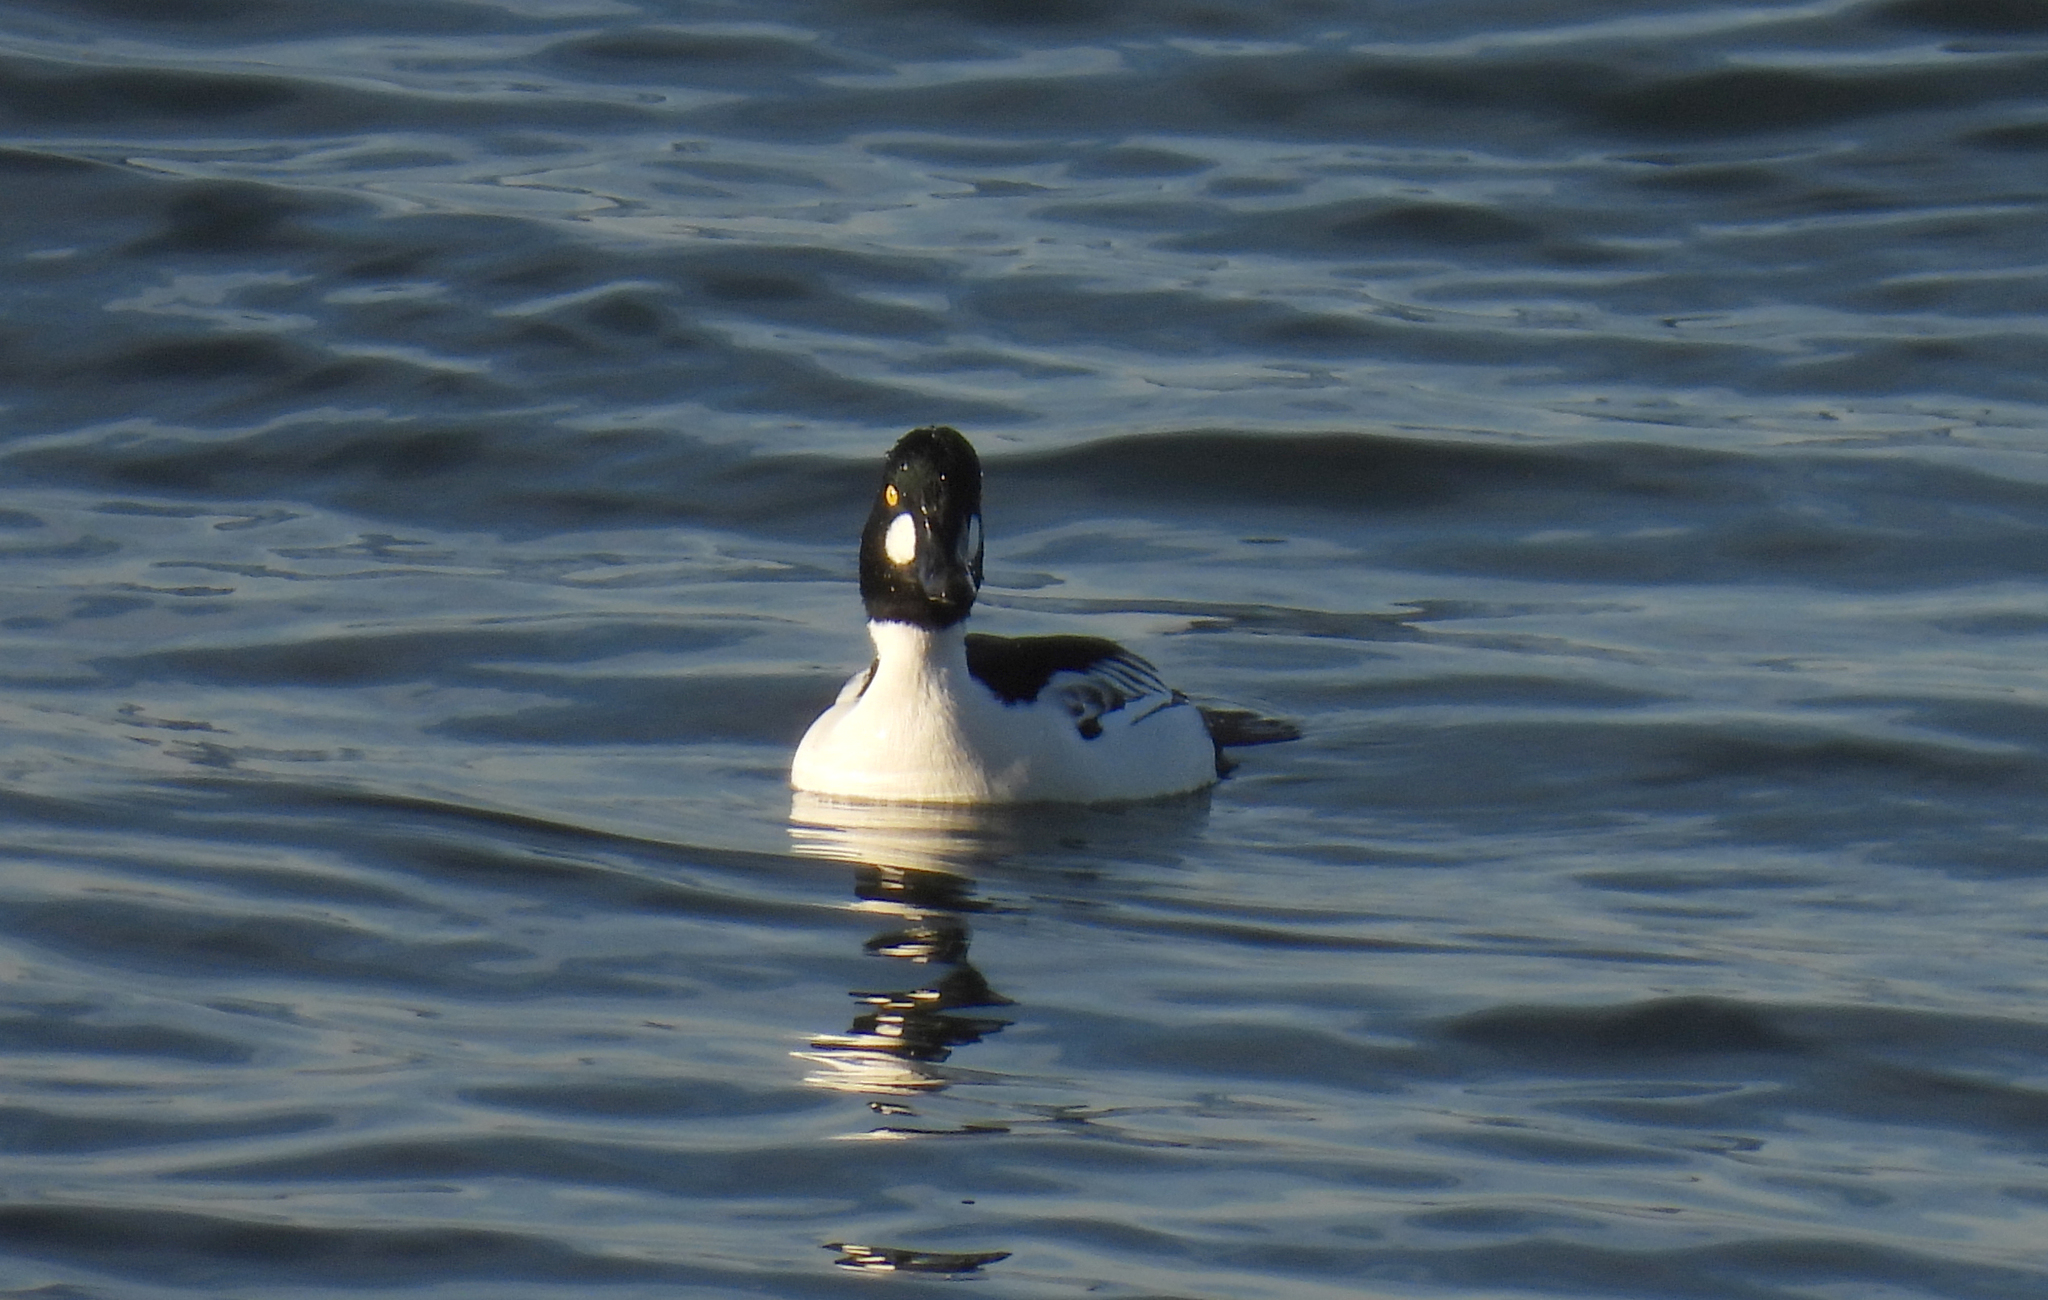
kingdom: Animalia
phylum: Chordata
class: Aves
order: Anseriformes
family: Anatidae
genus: Bucephala
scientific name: Bucephala clangula
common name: Common goldeneye
